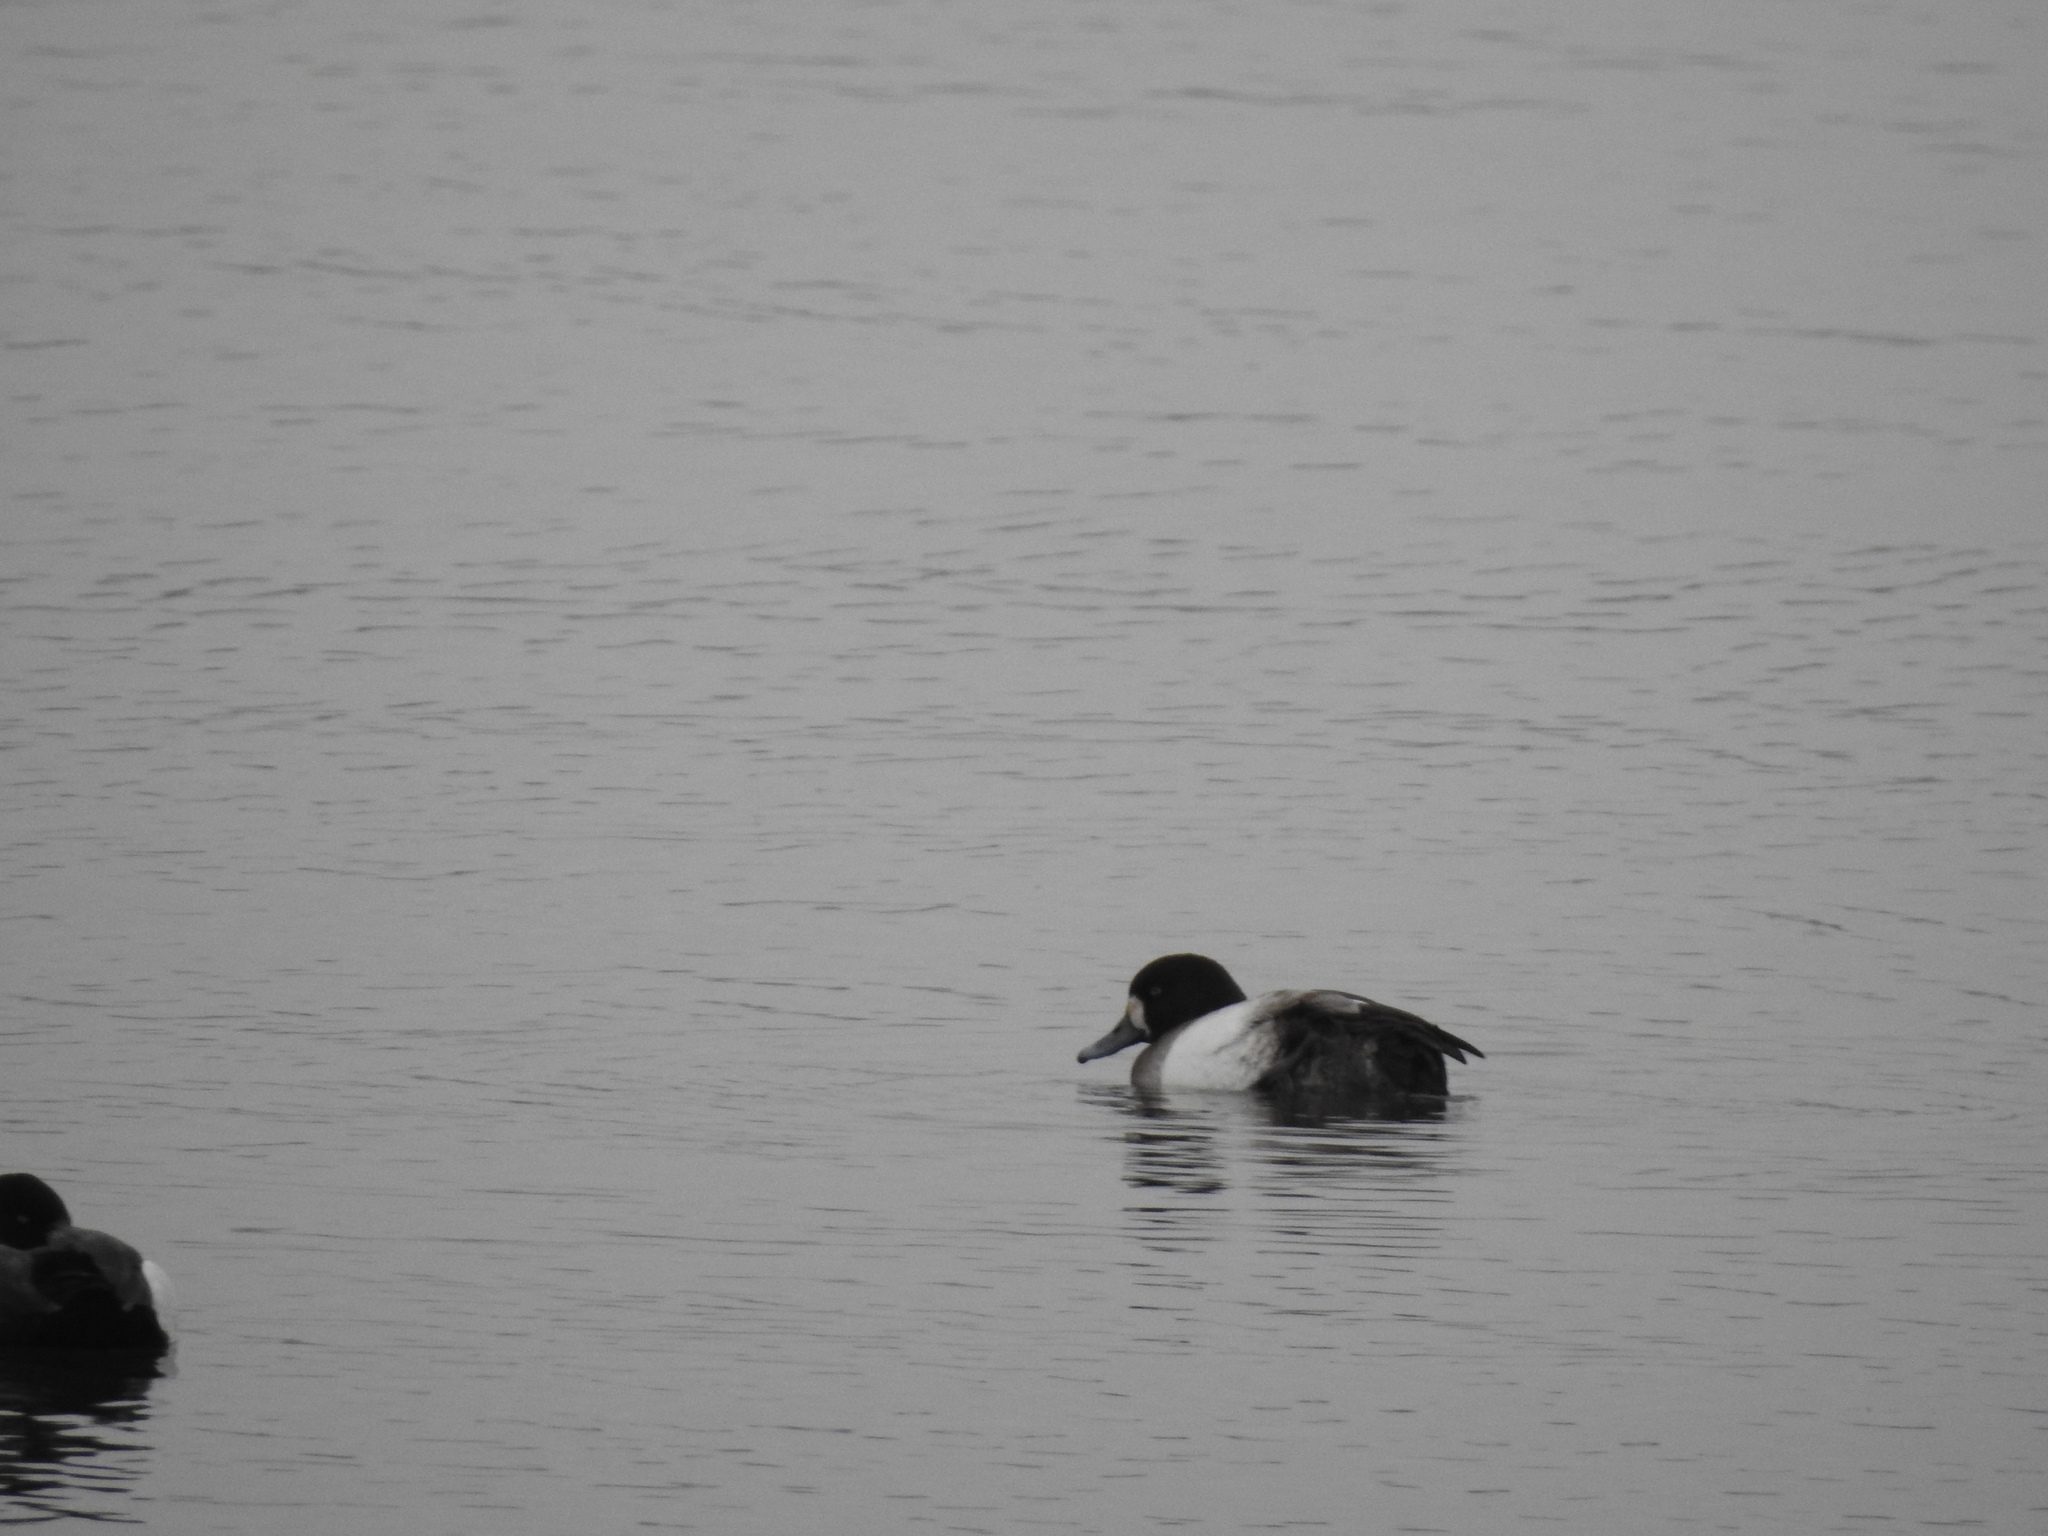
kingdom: Animalia
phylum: Chordata
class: Aves
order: Anseriformes
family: Anatidae
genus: Aythya
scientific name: Aythya marila
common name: Greater scaup
